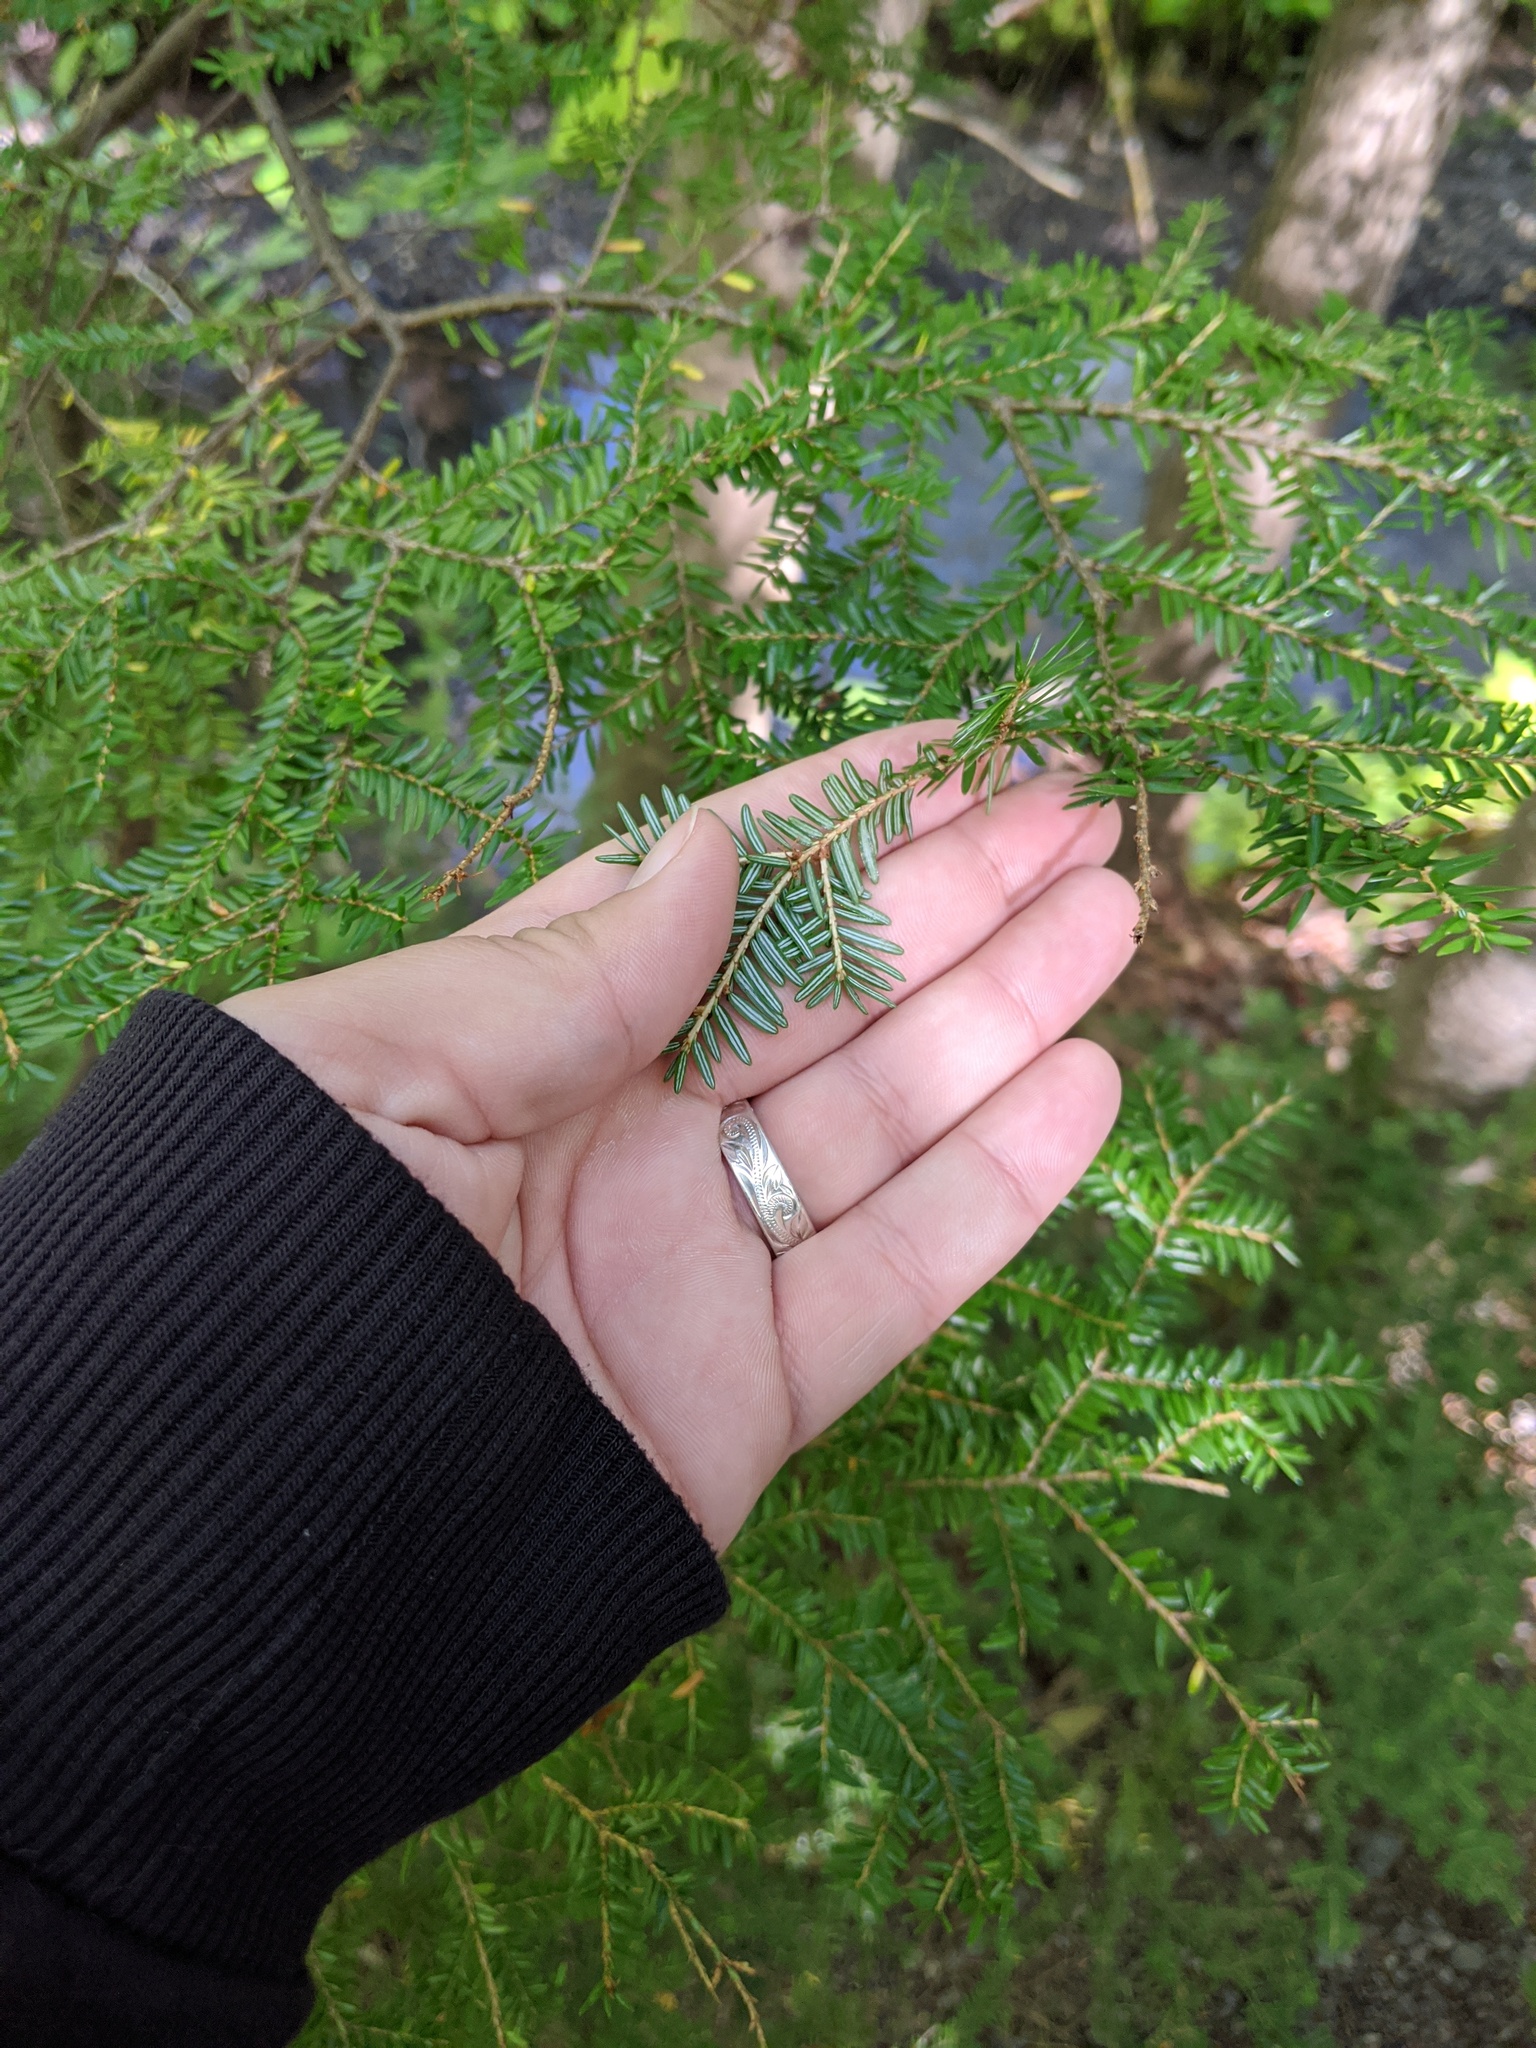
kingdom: Plantae
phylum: Tracheophyta
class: Pinopsida
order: Pinales
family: Pinaceae
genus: Tsuga
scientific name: Tsuga canadensis
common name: Eastern hemlock
